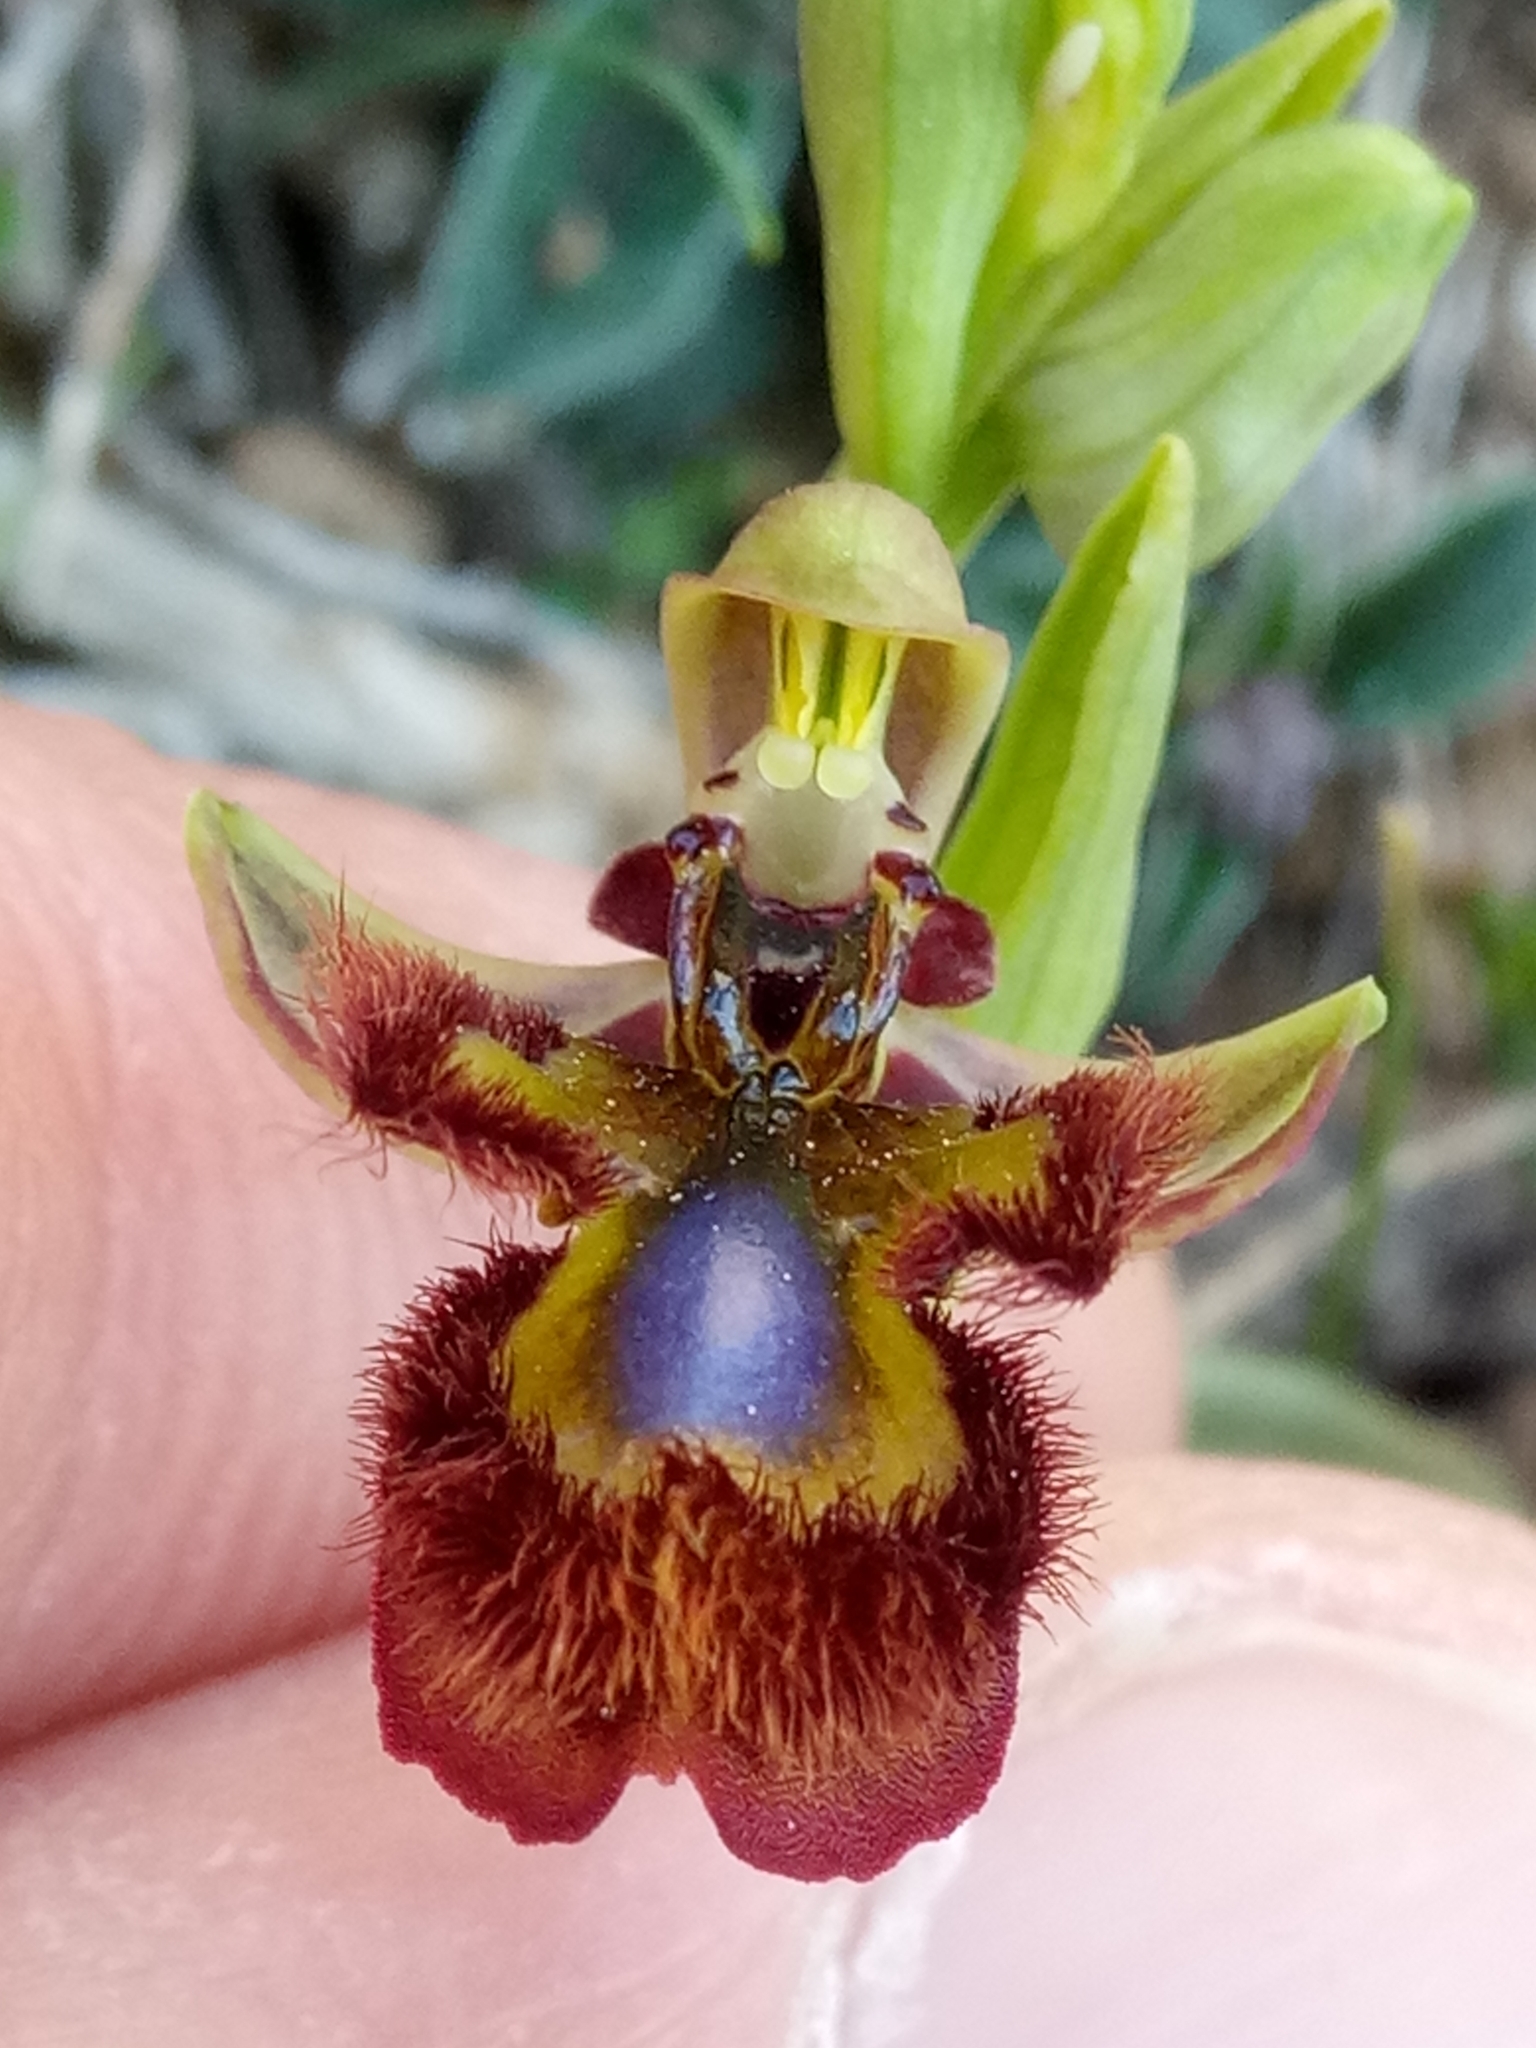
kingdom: Plantae
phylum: Tracheophyta
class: Liliopsida
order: Asparagales
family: Orchidaceae
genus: Ophrys
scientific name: Ophrys speculum
